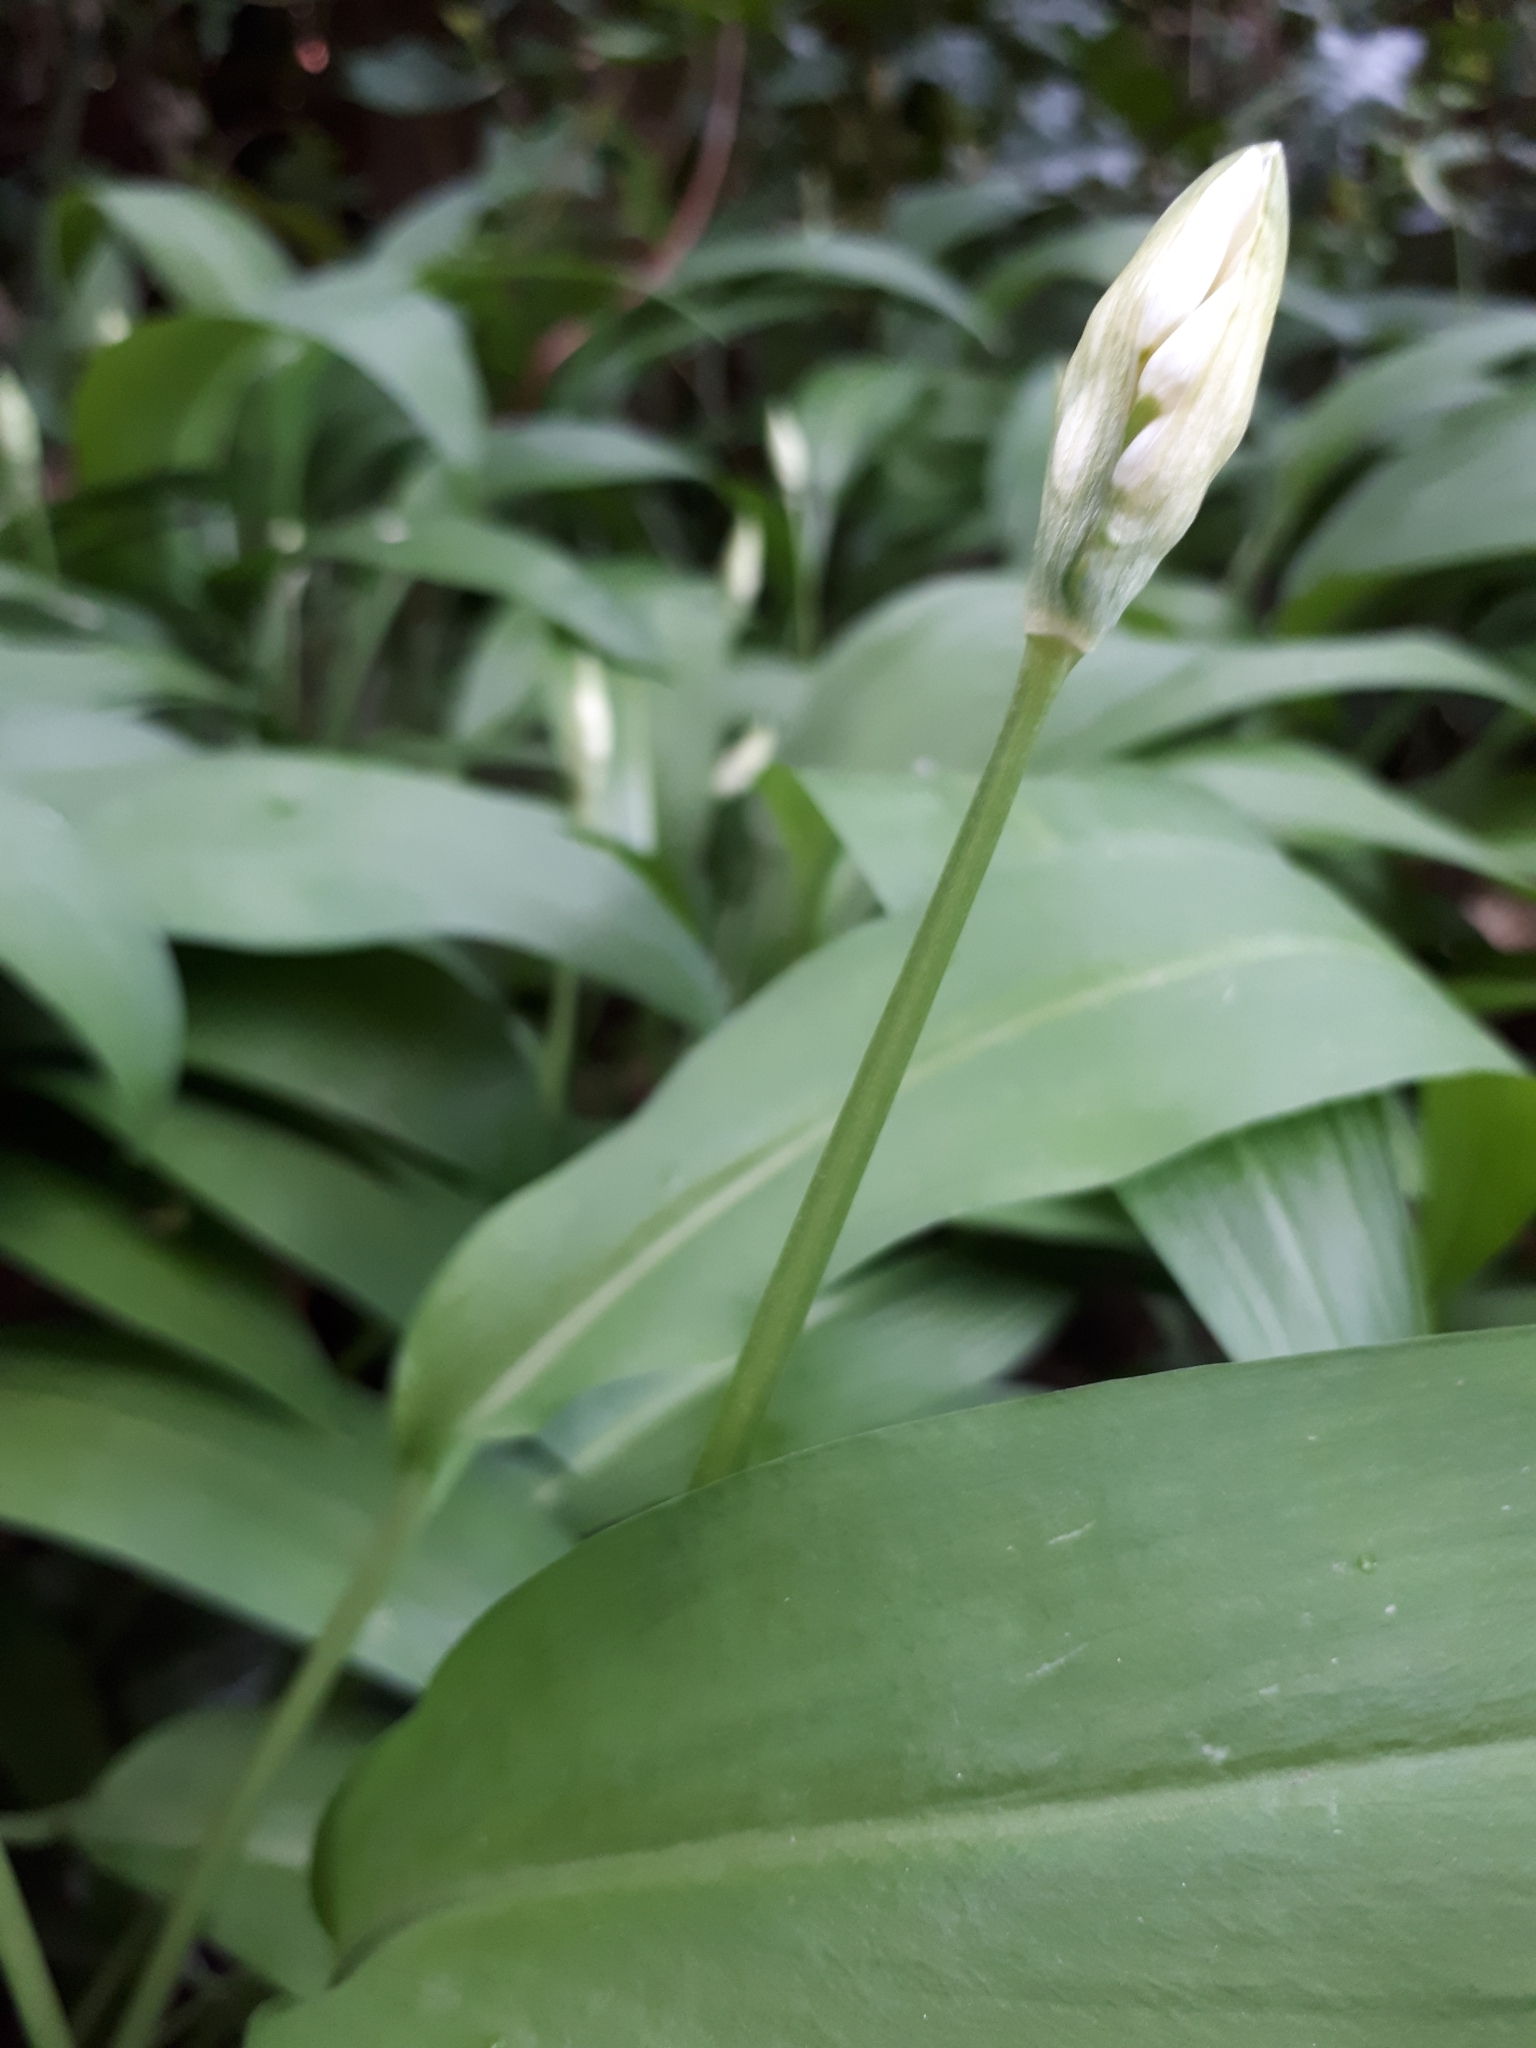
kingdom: Plantae
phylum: Tracheophyta
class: Liliopsida
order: Asparagales
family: Amaryllidaceae
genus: Allium
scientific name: Allium ursinum
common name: Ramsons
